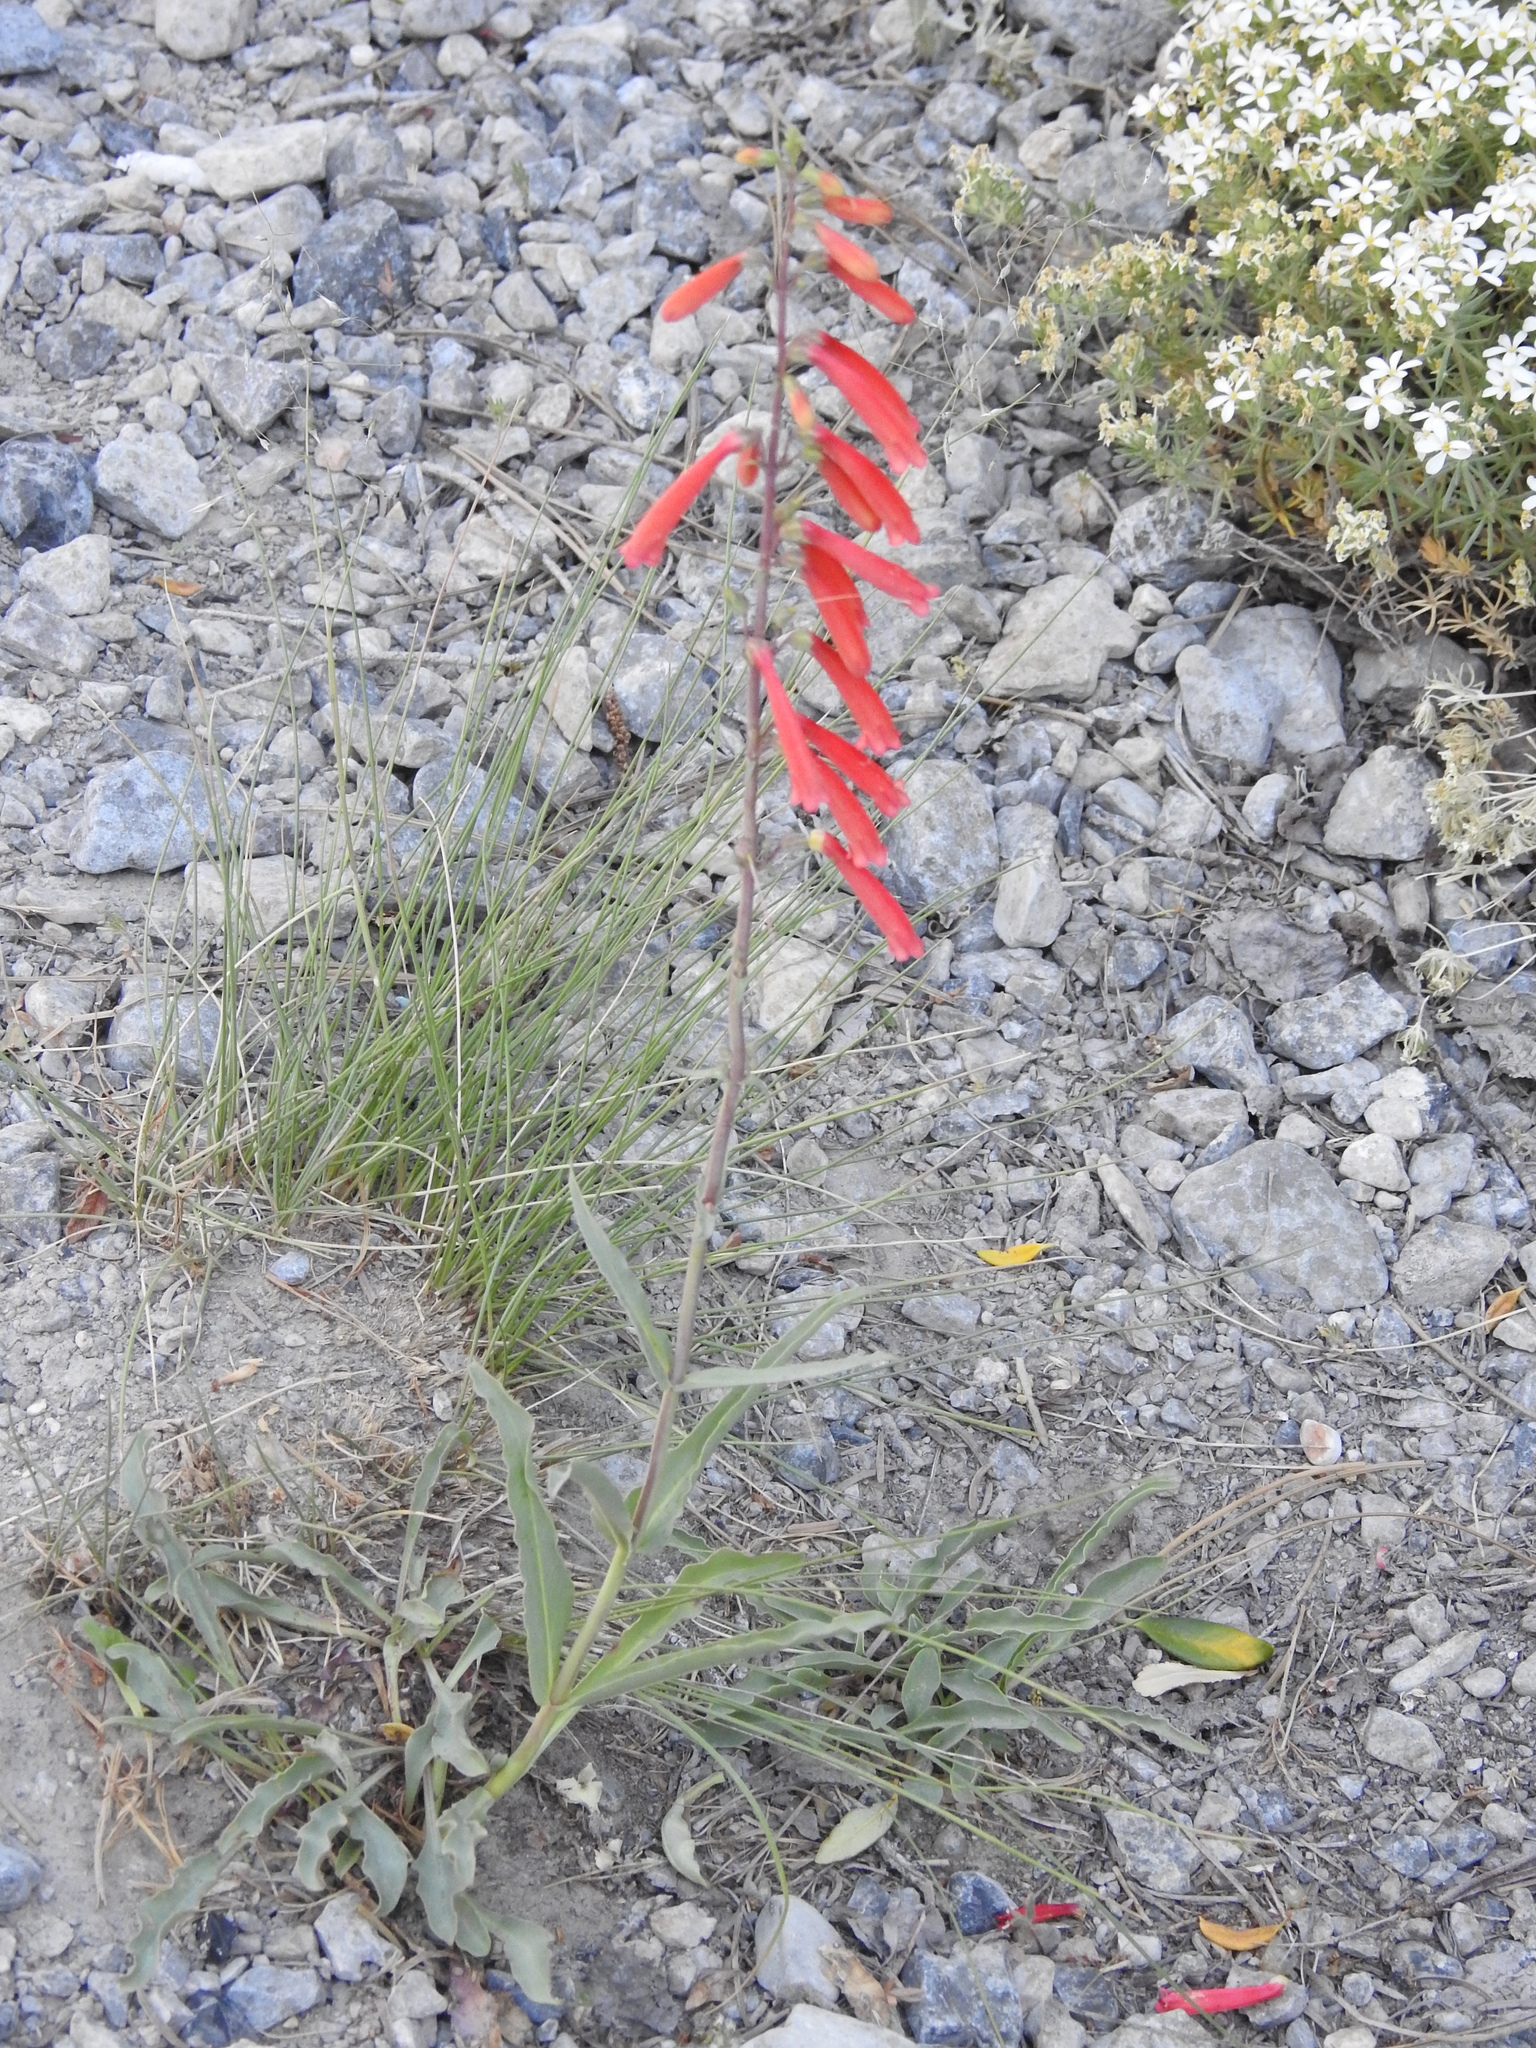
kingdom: Plantae
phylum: Tracheophyta
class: Magnoliopsida
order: Lamiales
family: Plantaginaceae
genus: Penstemon
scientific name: Penstemon eatonii
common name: Eaton's penstemon
